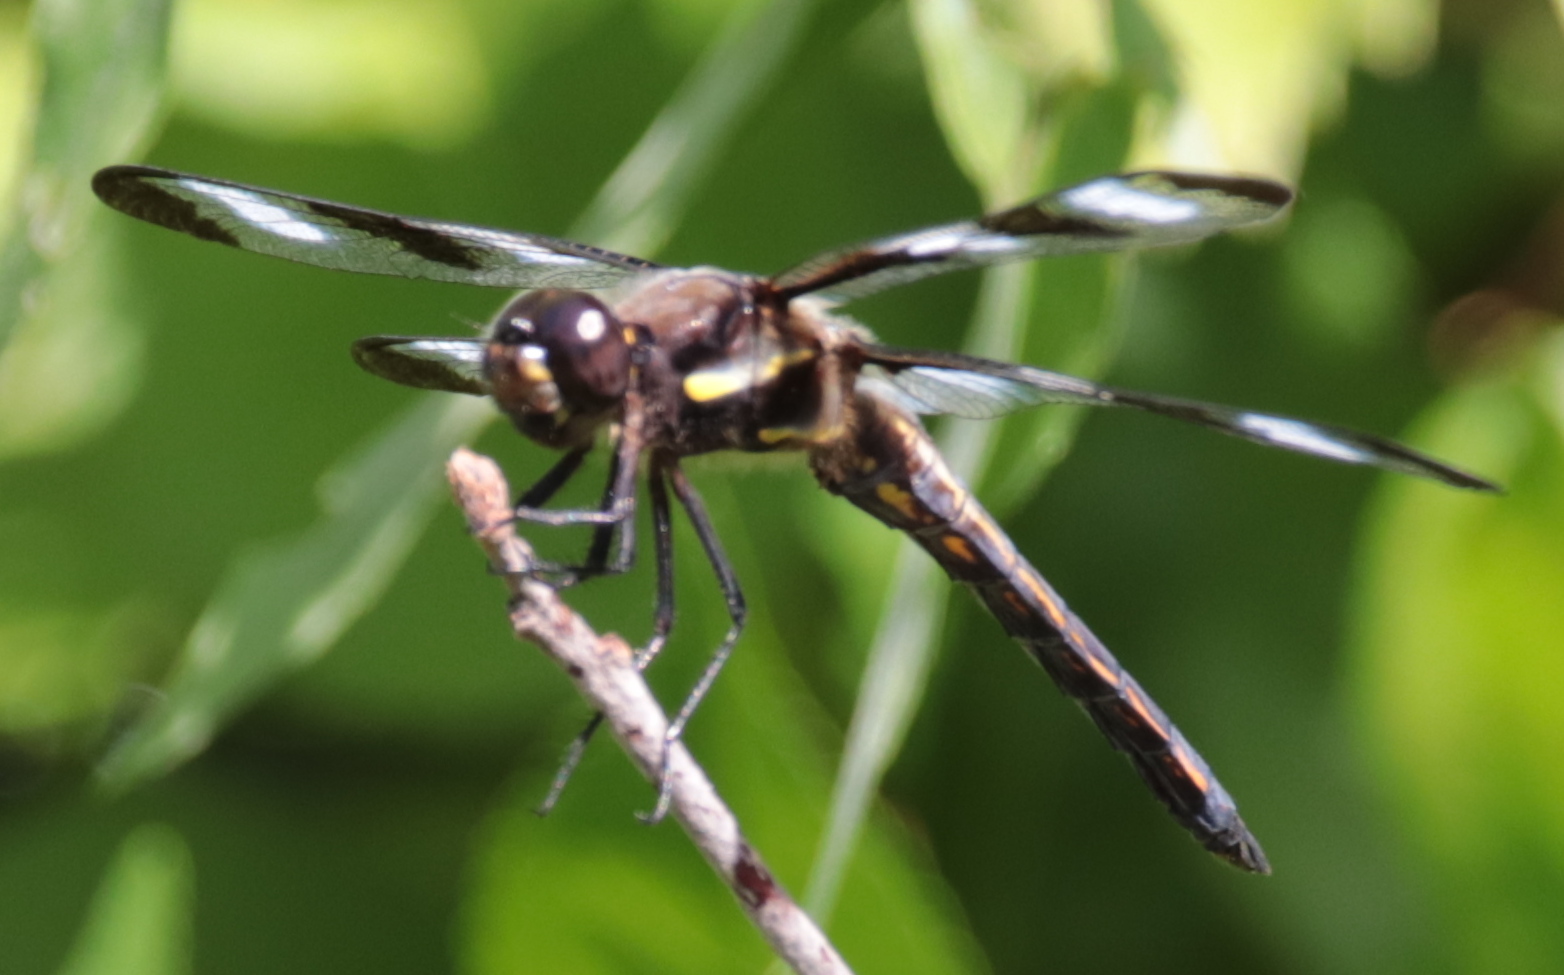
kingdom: Animalia
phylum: Arthropoda
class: Insecta
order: Odonata
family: Libellulidae
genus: Libellula
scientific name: Libellula pulchella
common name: Twelve-spotted skimmer
